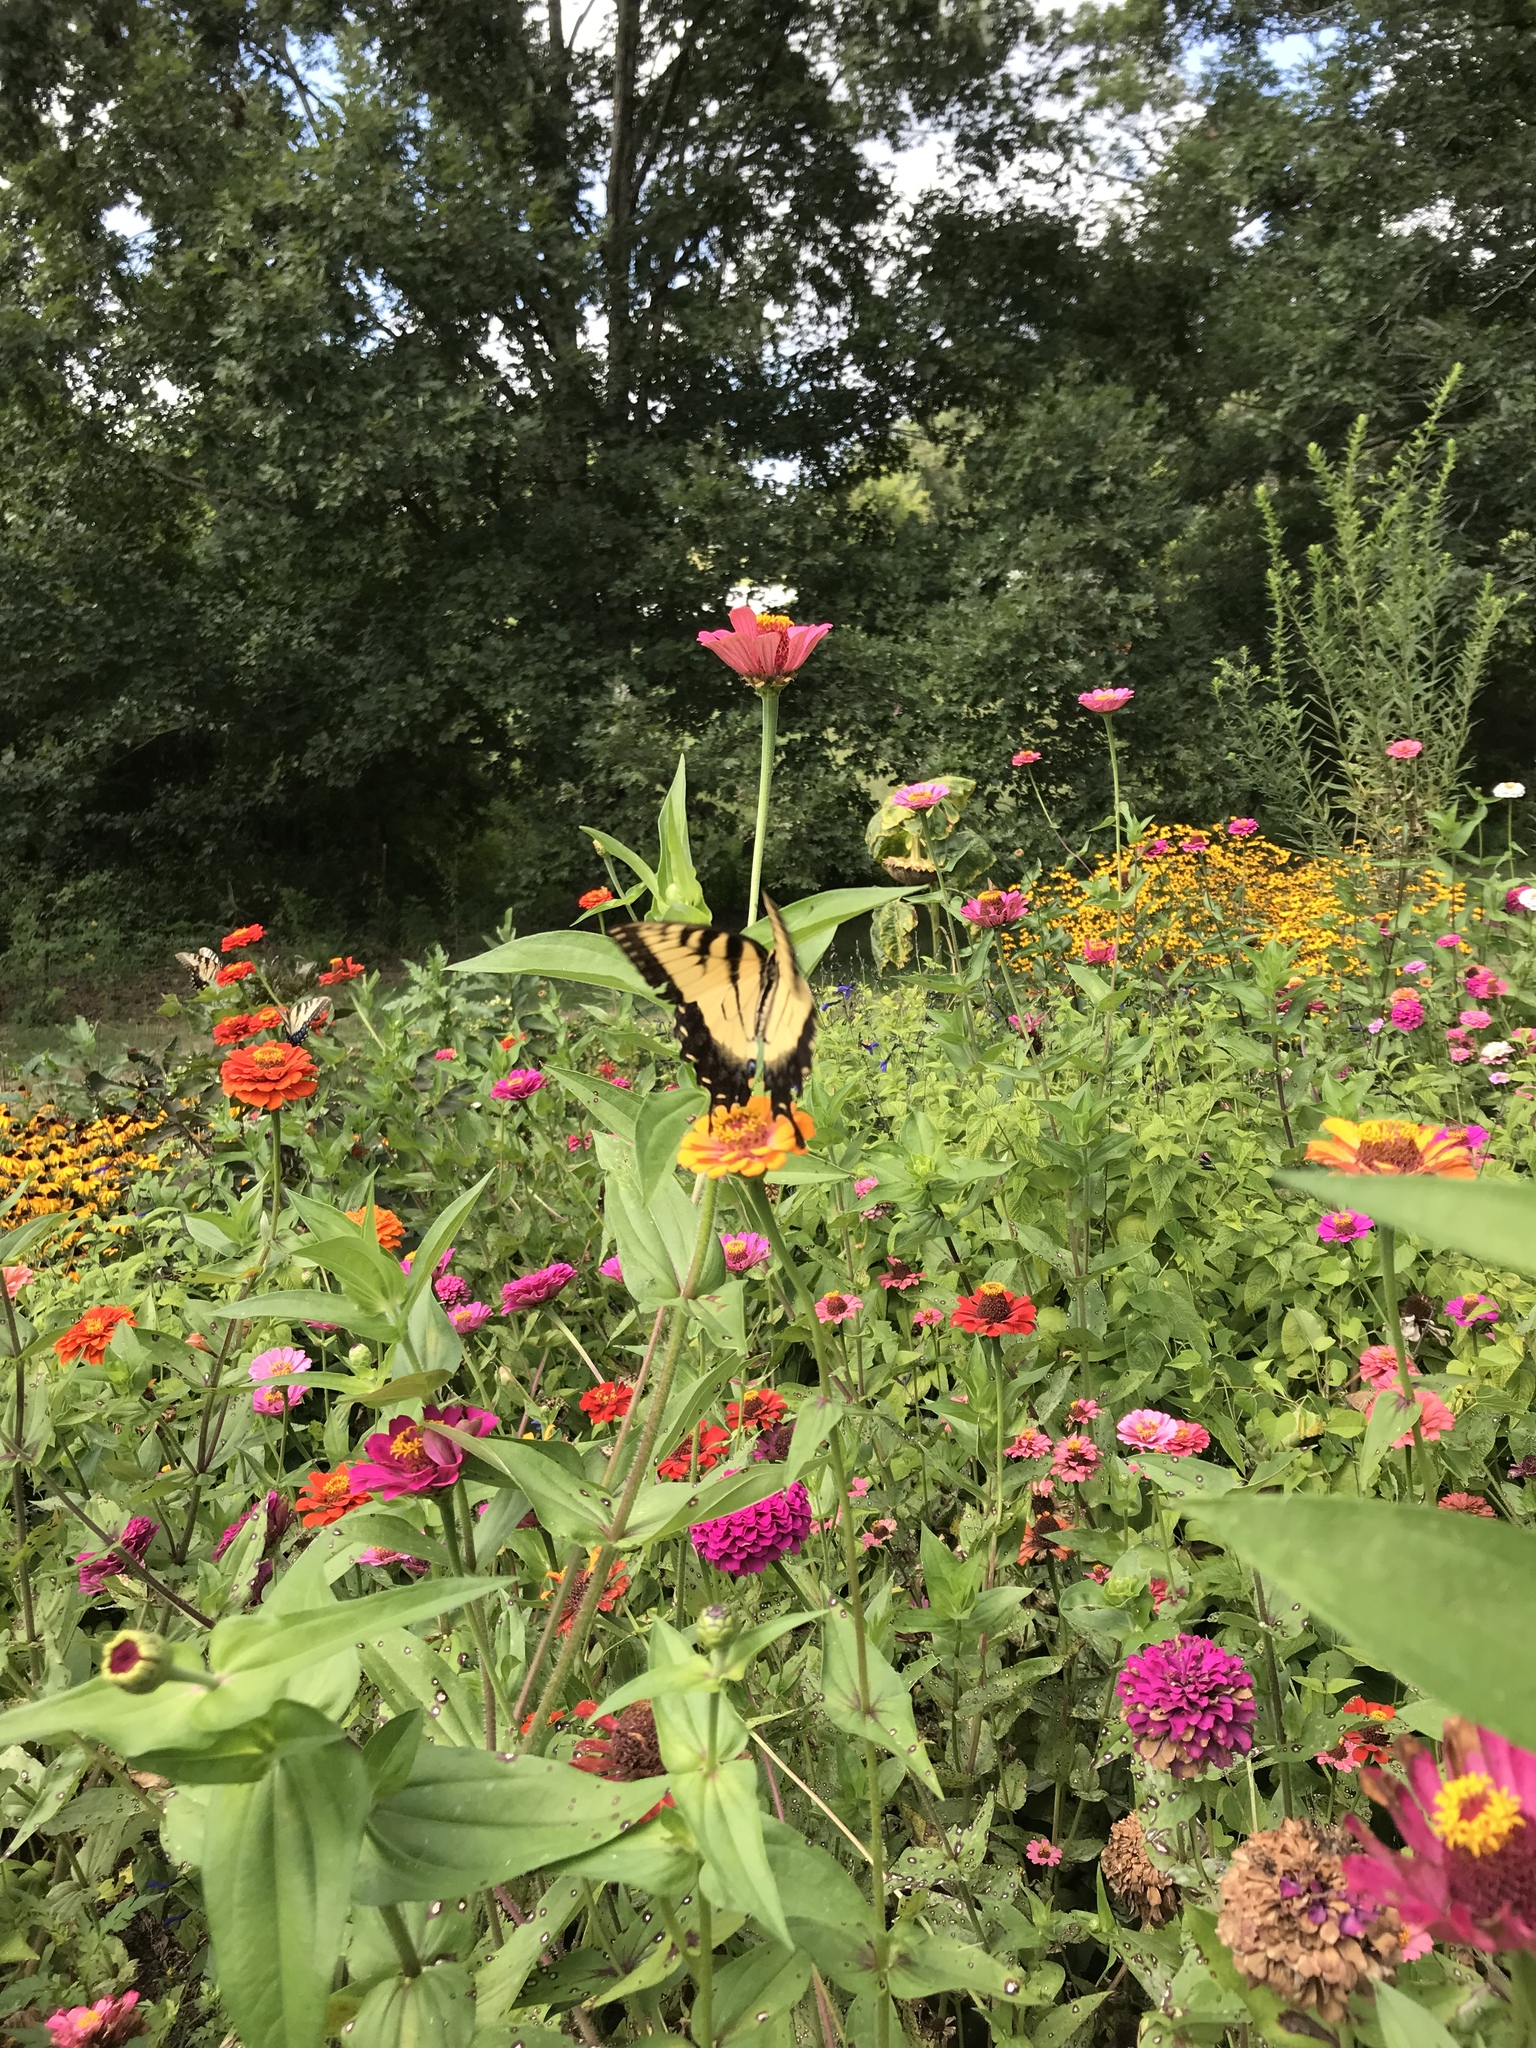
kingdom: Animalia
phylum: Arthropoda
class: Insecta
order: Lepidoptera
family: Papilionidae
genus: Papilio
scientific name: Papilio glaucus
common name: Tiger swallowtail
